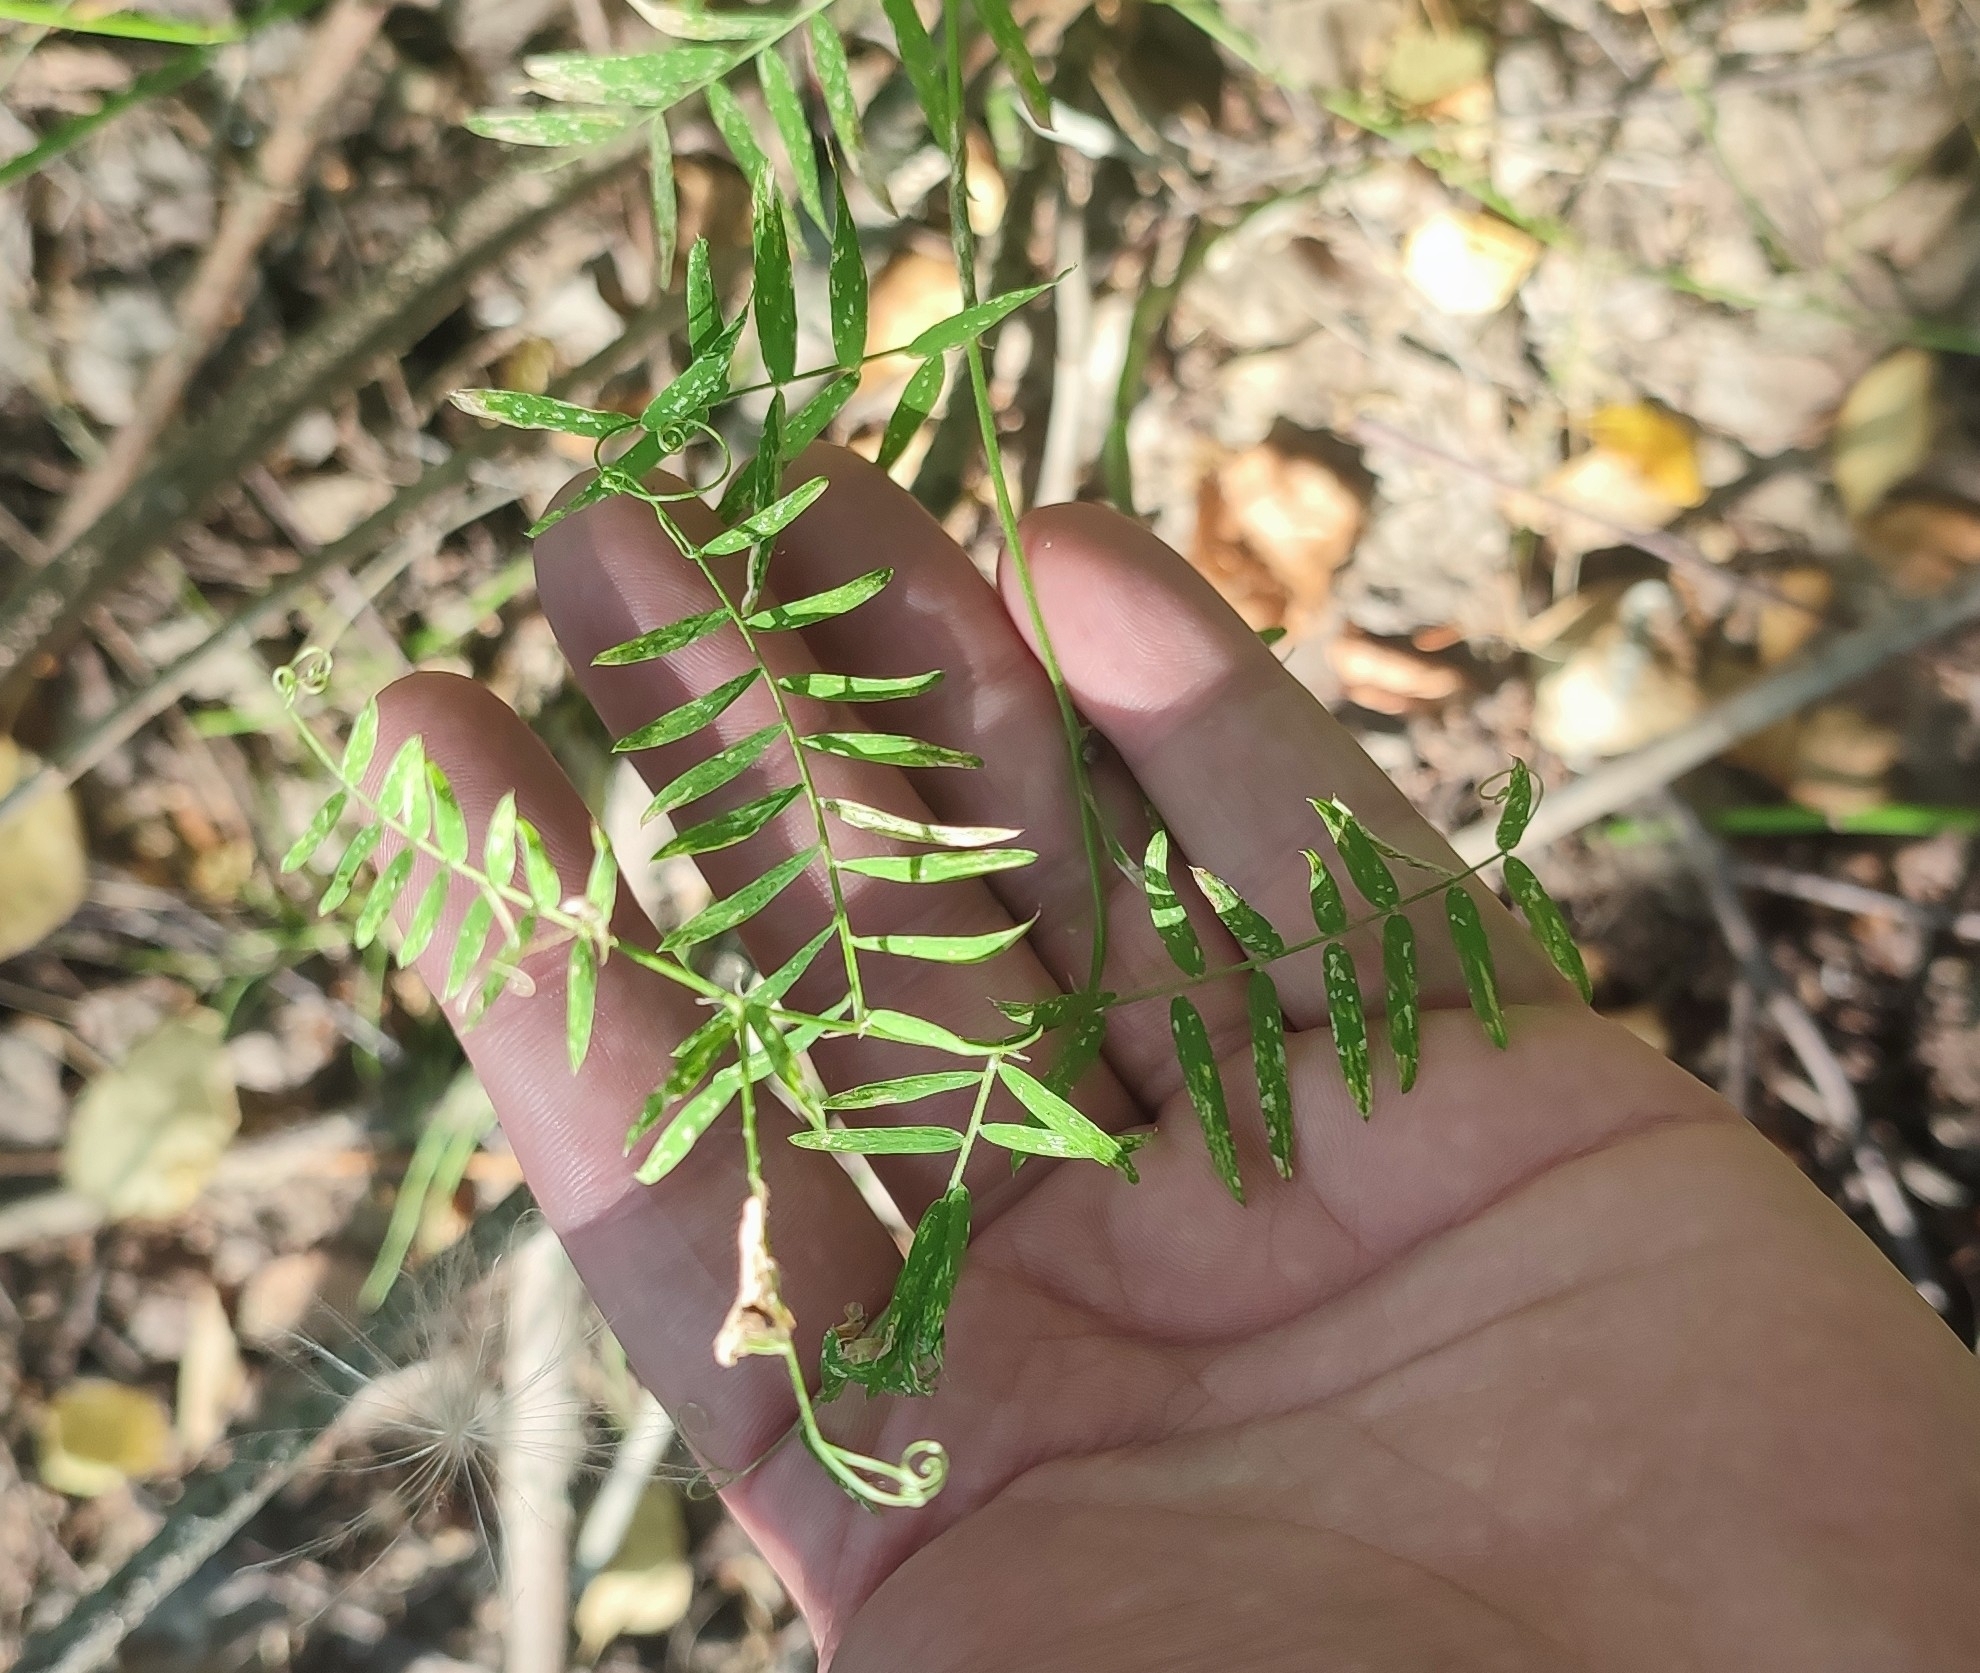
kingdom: Plantae
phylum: Tracheophyta
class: Magnoliopsida
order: Fabales
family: Fabaceae
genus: Vicia
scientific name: Vicia cracca
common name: Bird vetch
